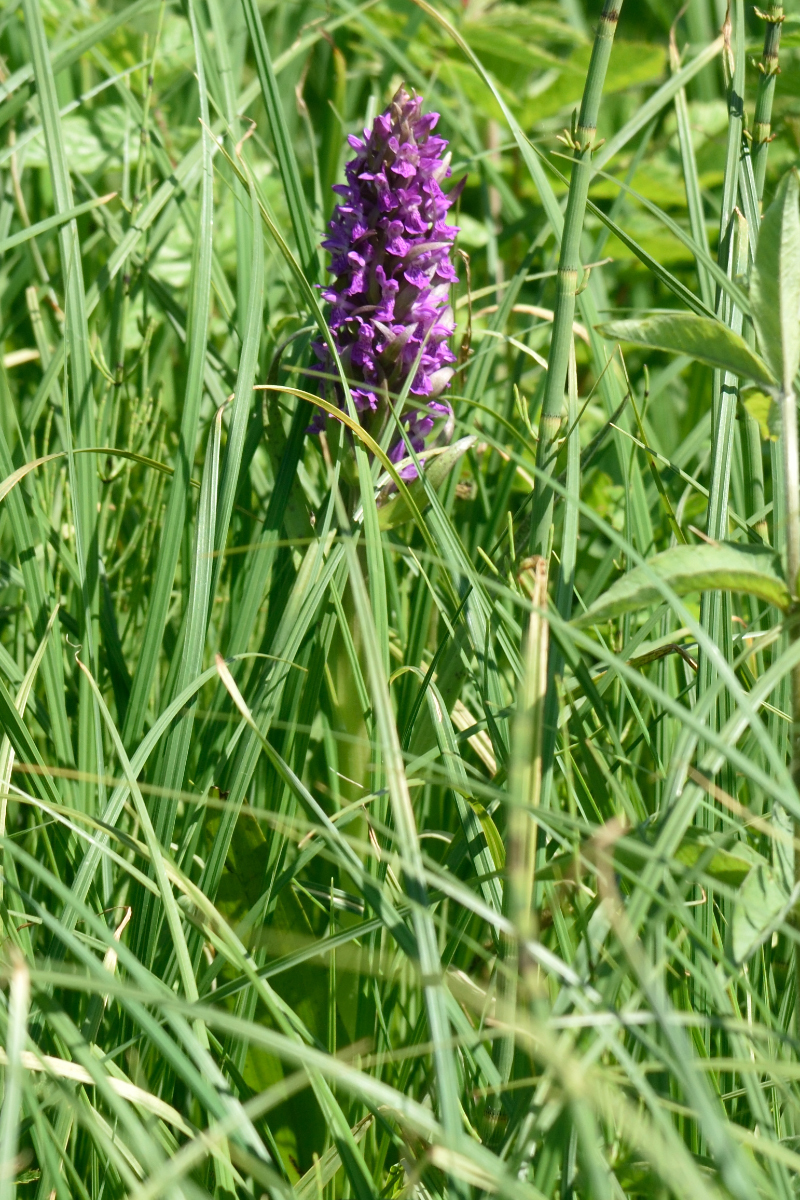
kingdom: Plantae
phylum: Tracheophyta
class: Liliopsida
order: Asparagales
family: Orchidaceae
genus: Dactylorhiza
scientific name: Dactylorhiza incarnata
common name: Early marsh-orchid
